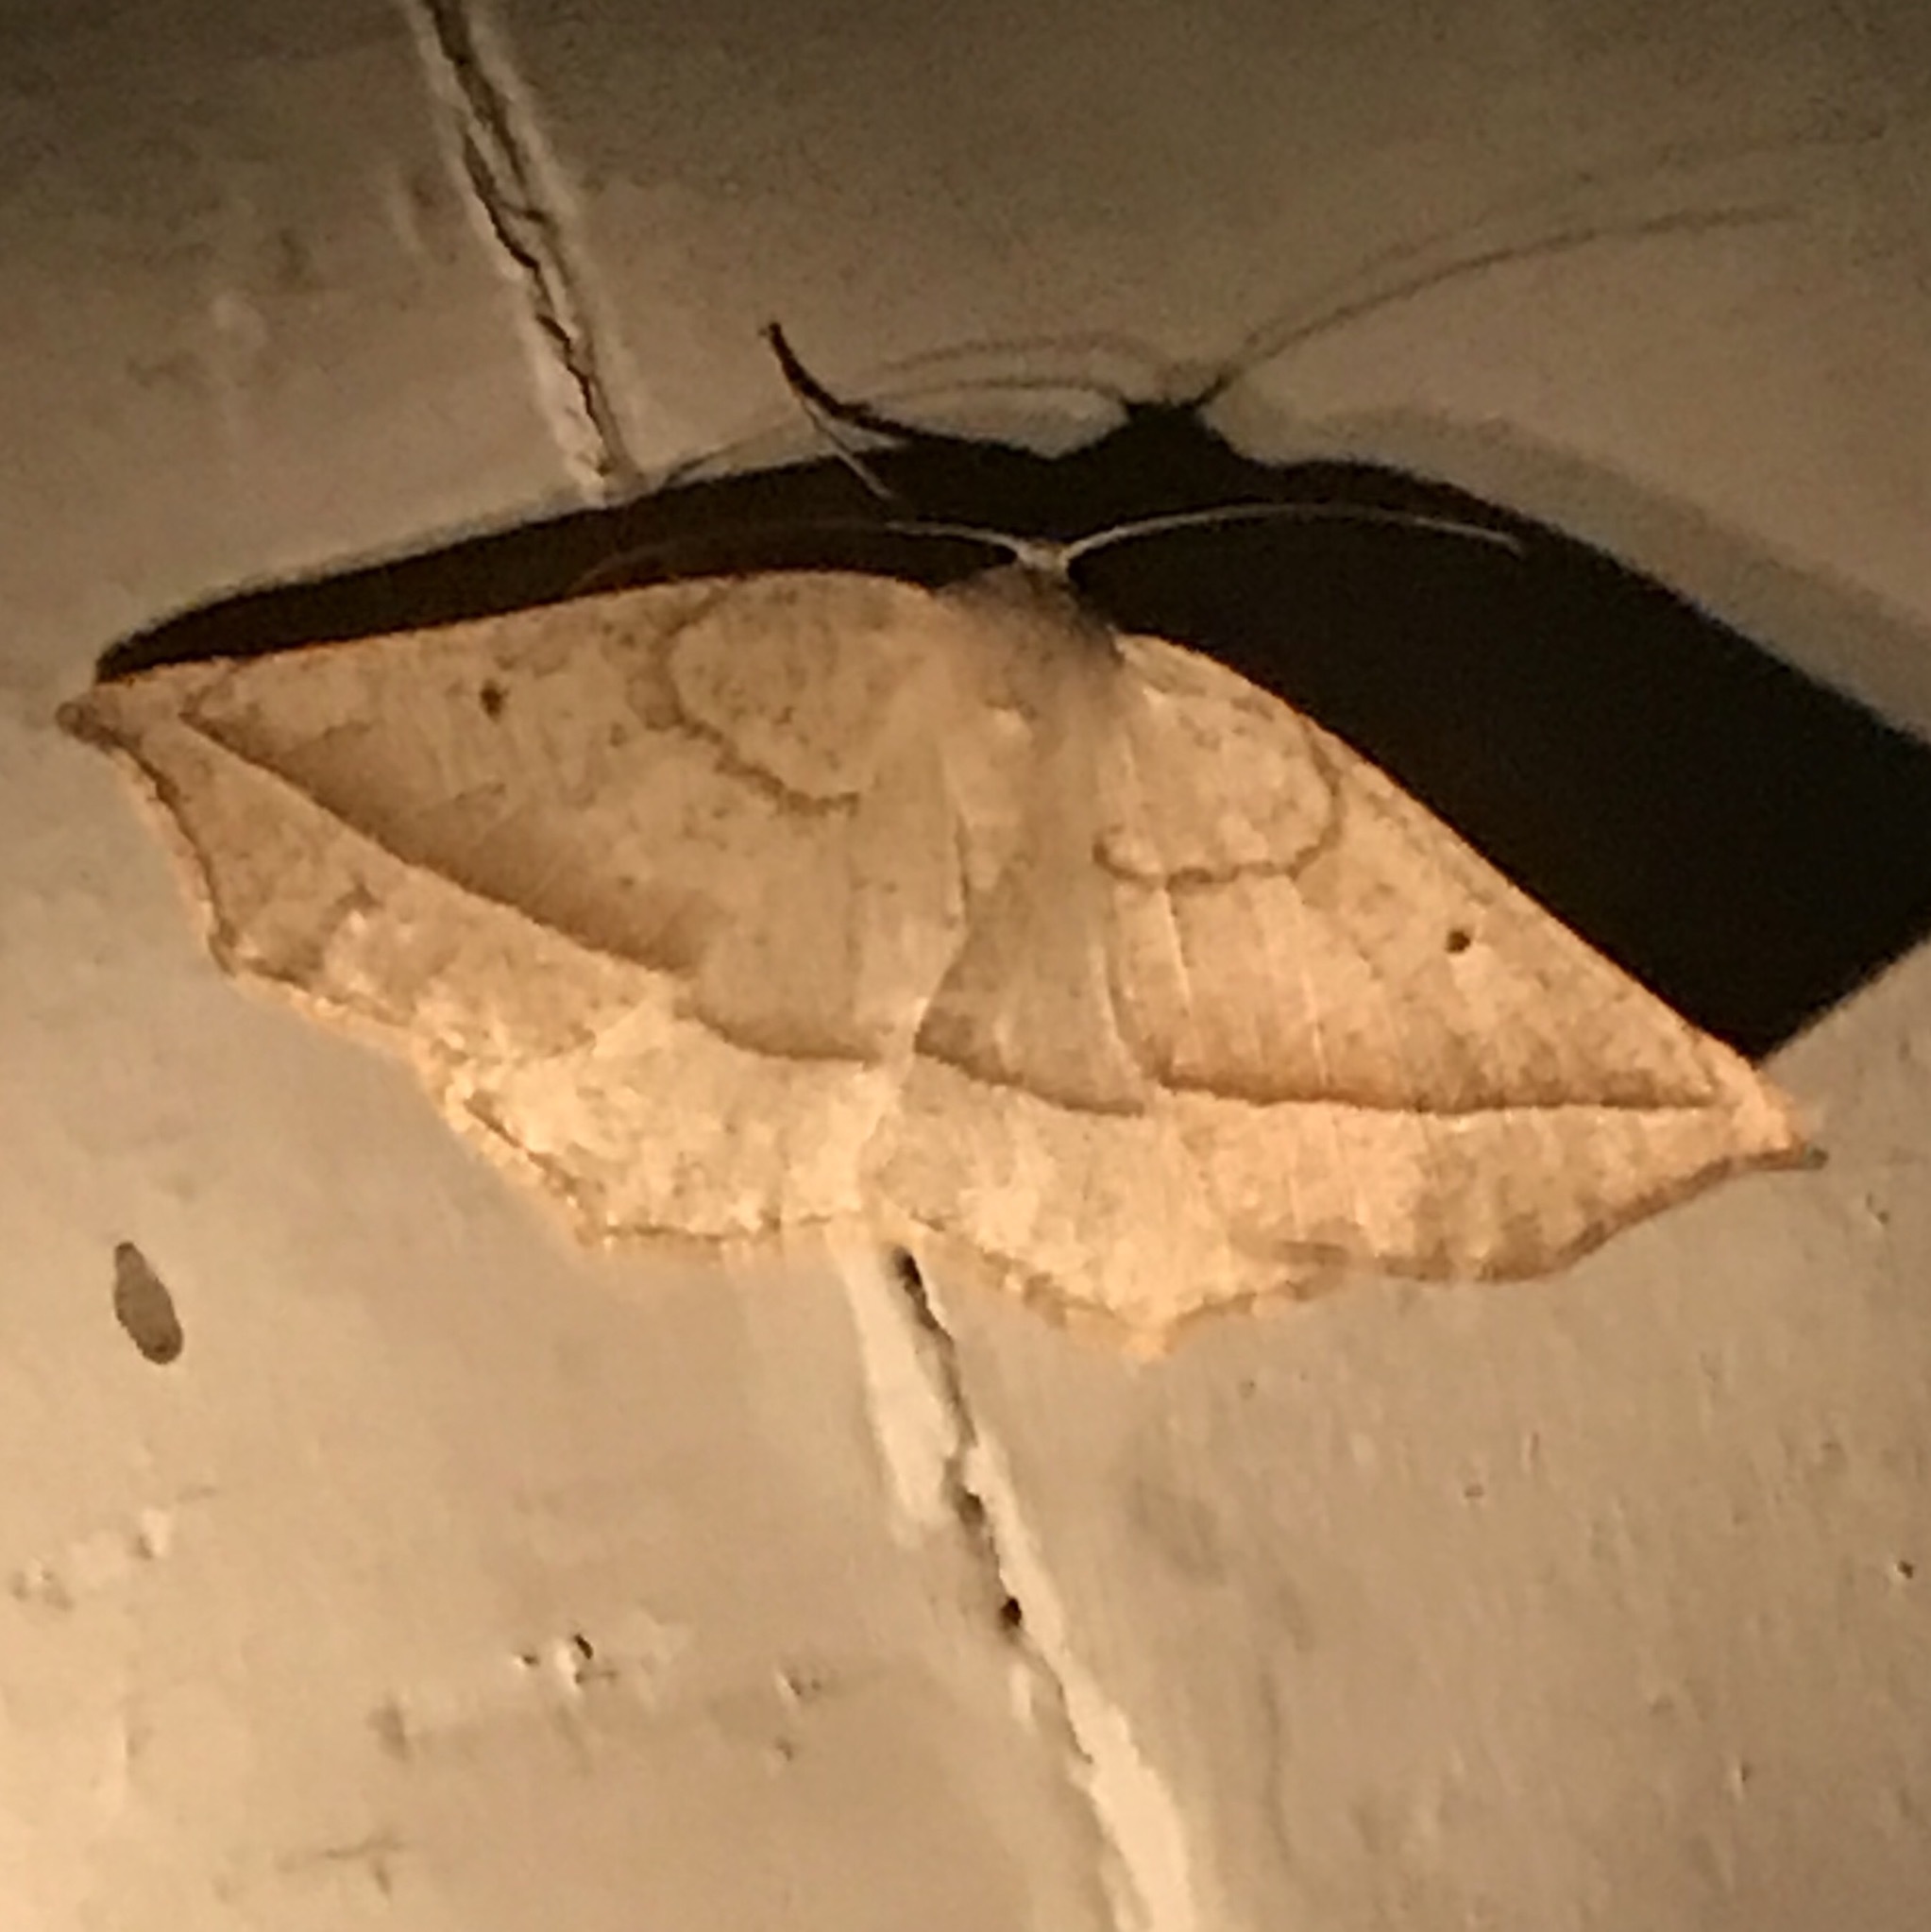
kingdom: Animalia
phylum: Arthropoda
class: Insecta
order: Lepidoptera
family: Geometridae
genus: Eusarca
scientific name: Eusarca confusaria
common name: Confused eusarca
